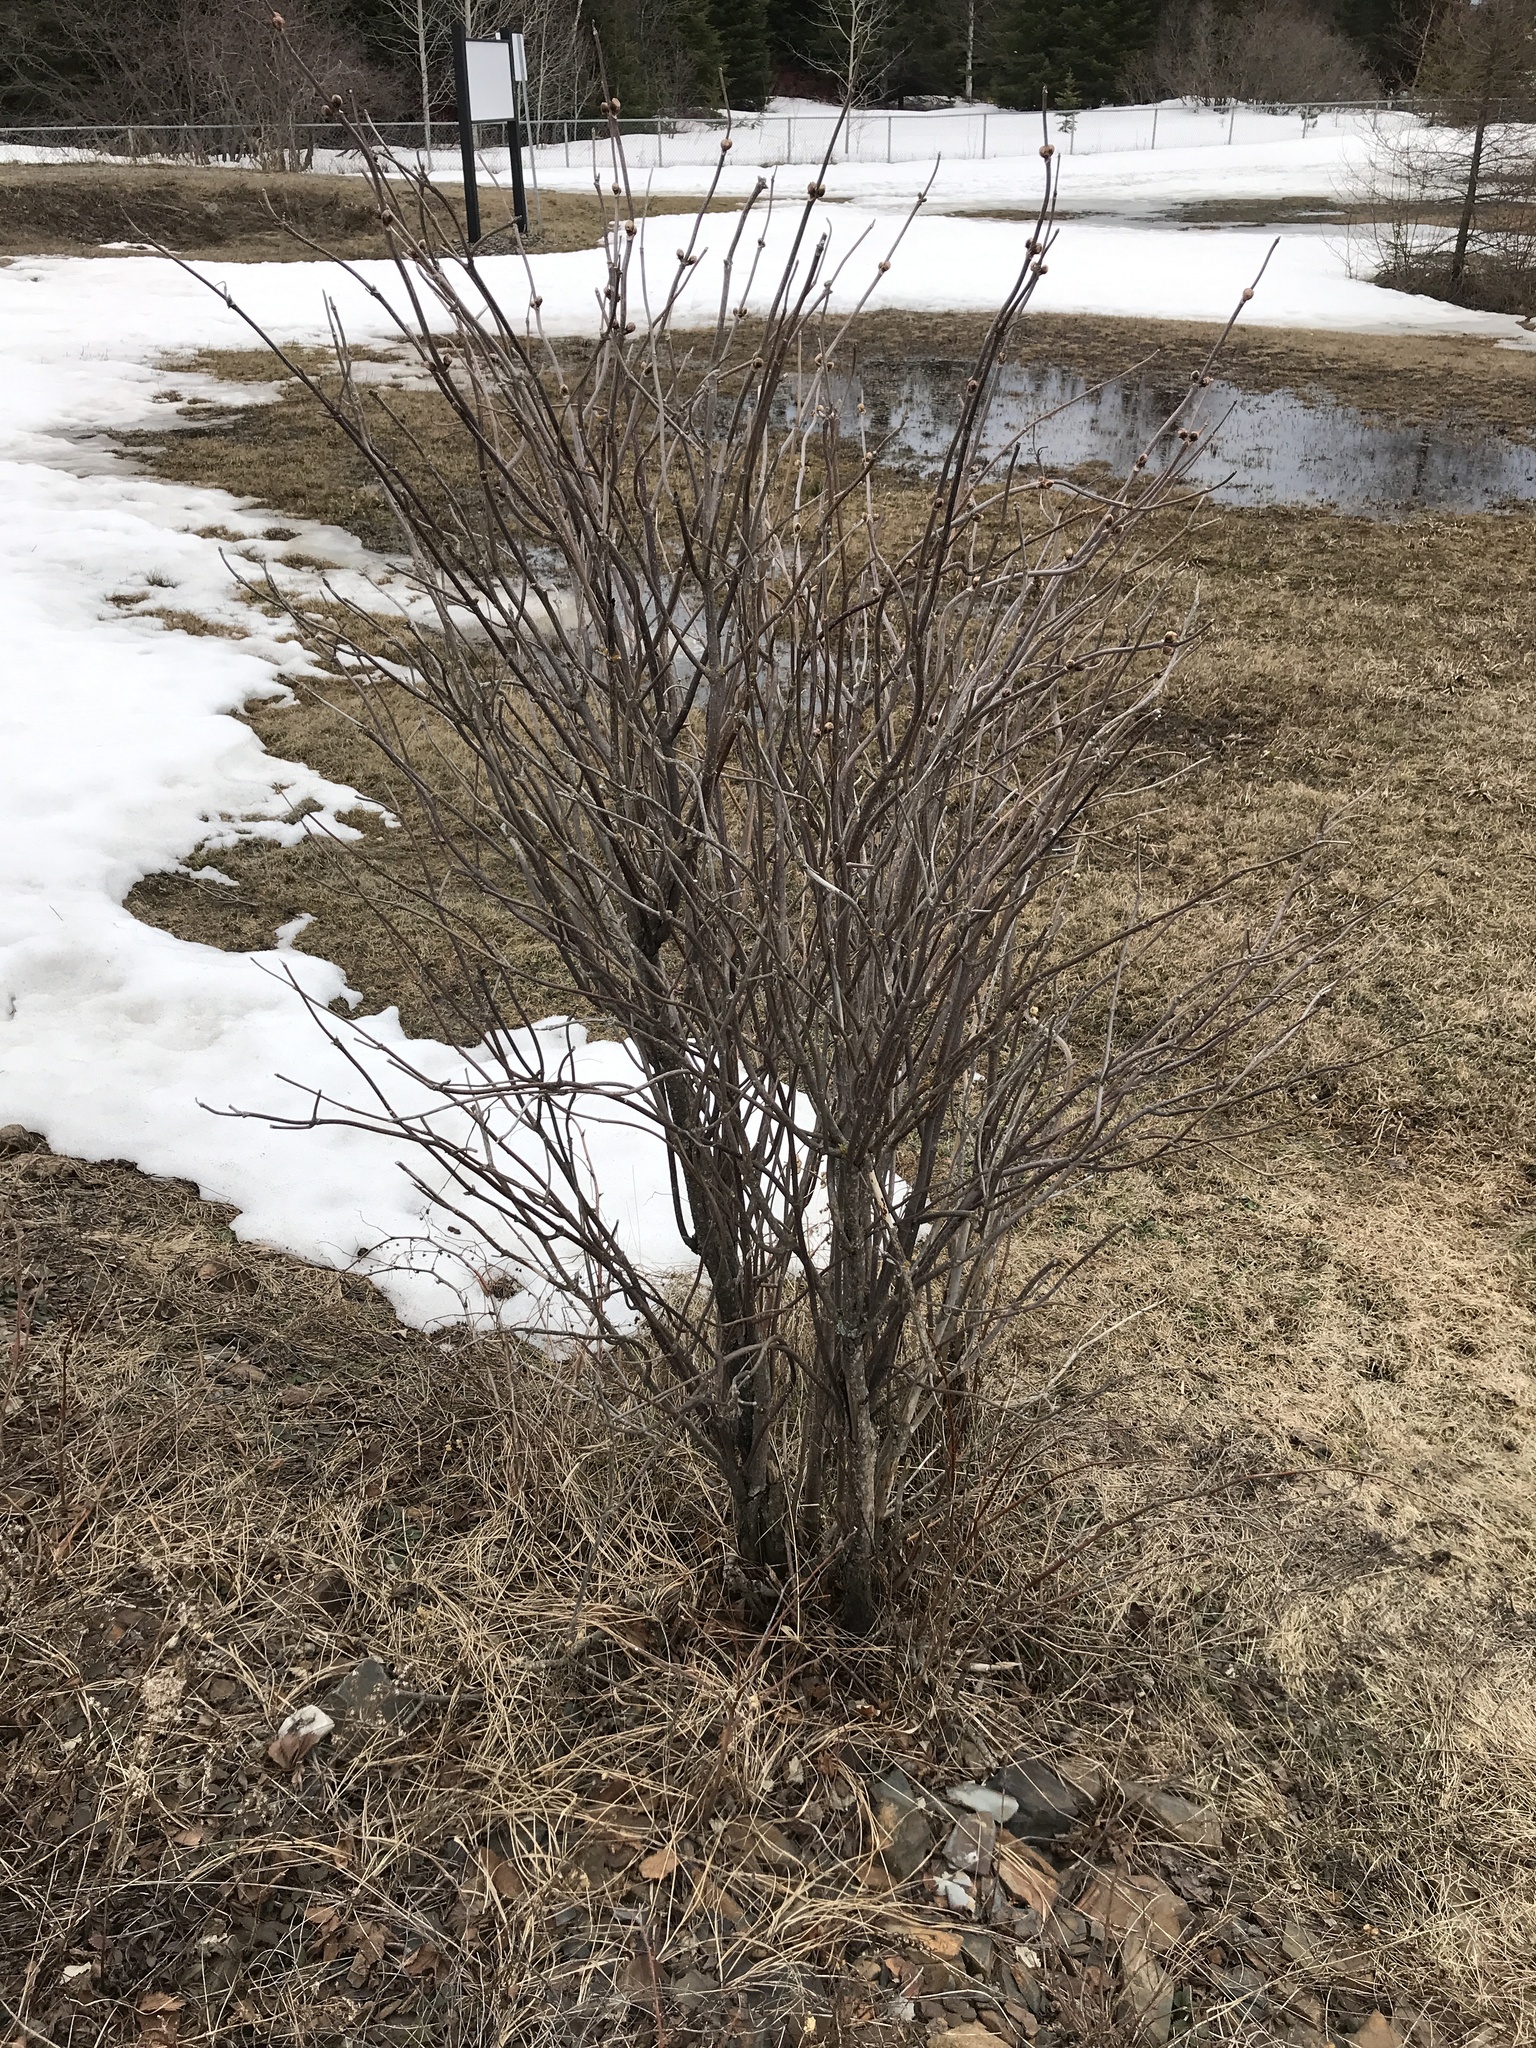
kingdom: Plantae
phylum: Tracheophyta
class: Magnoliopsida
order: Dipsacales
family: Viburnaceae
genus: Sambucus
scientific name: Sambucus racemosa
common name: Red-berried elder
